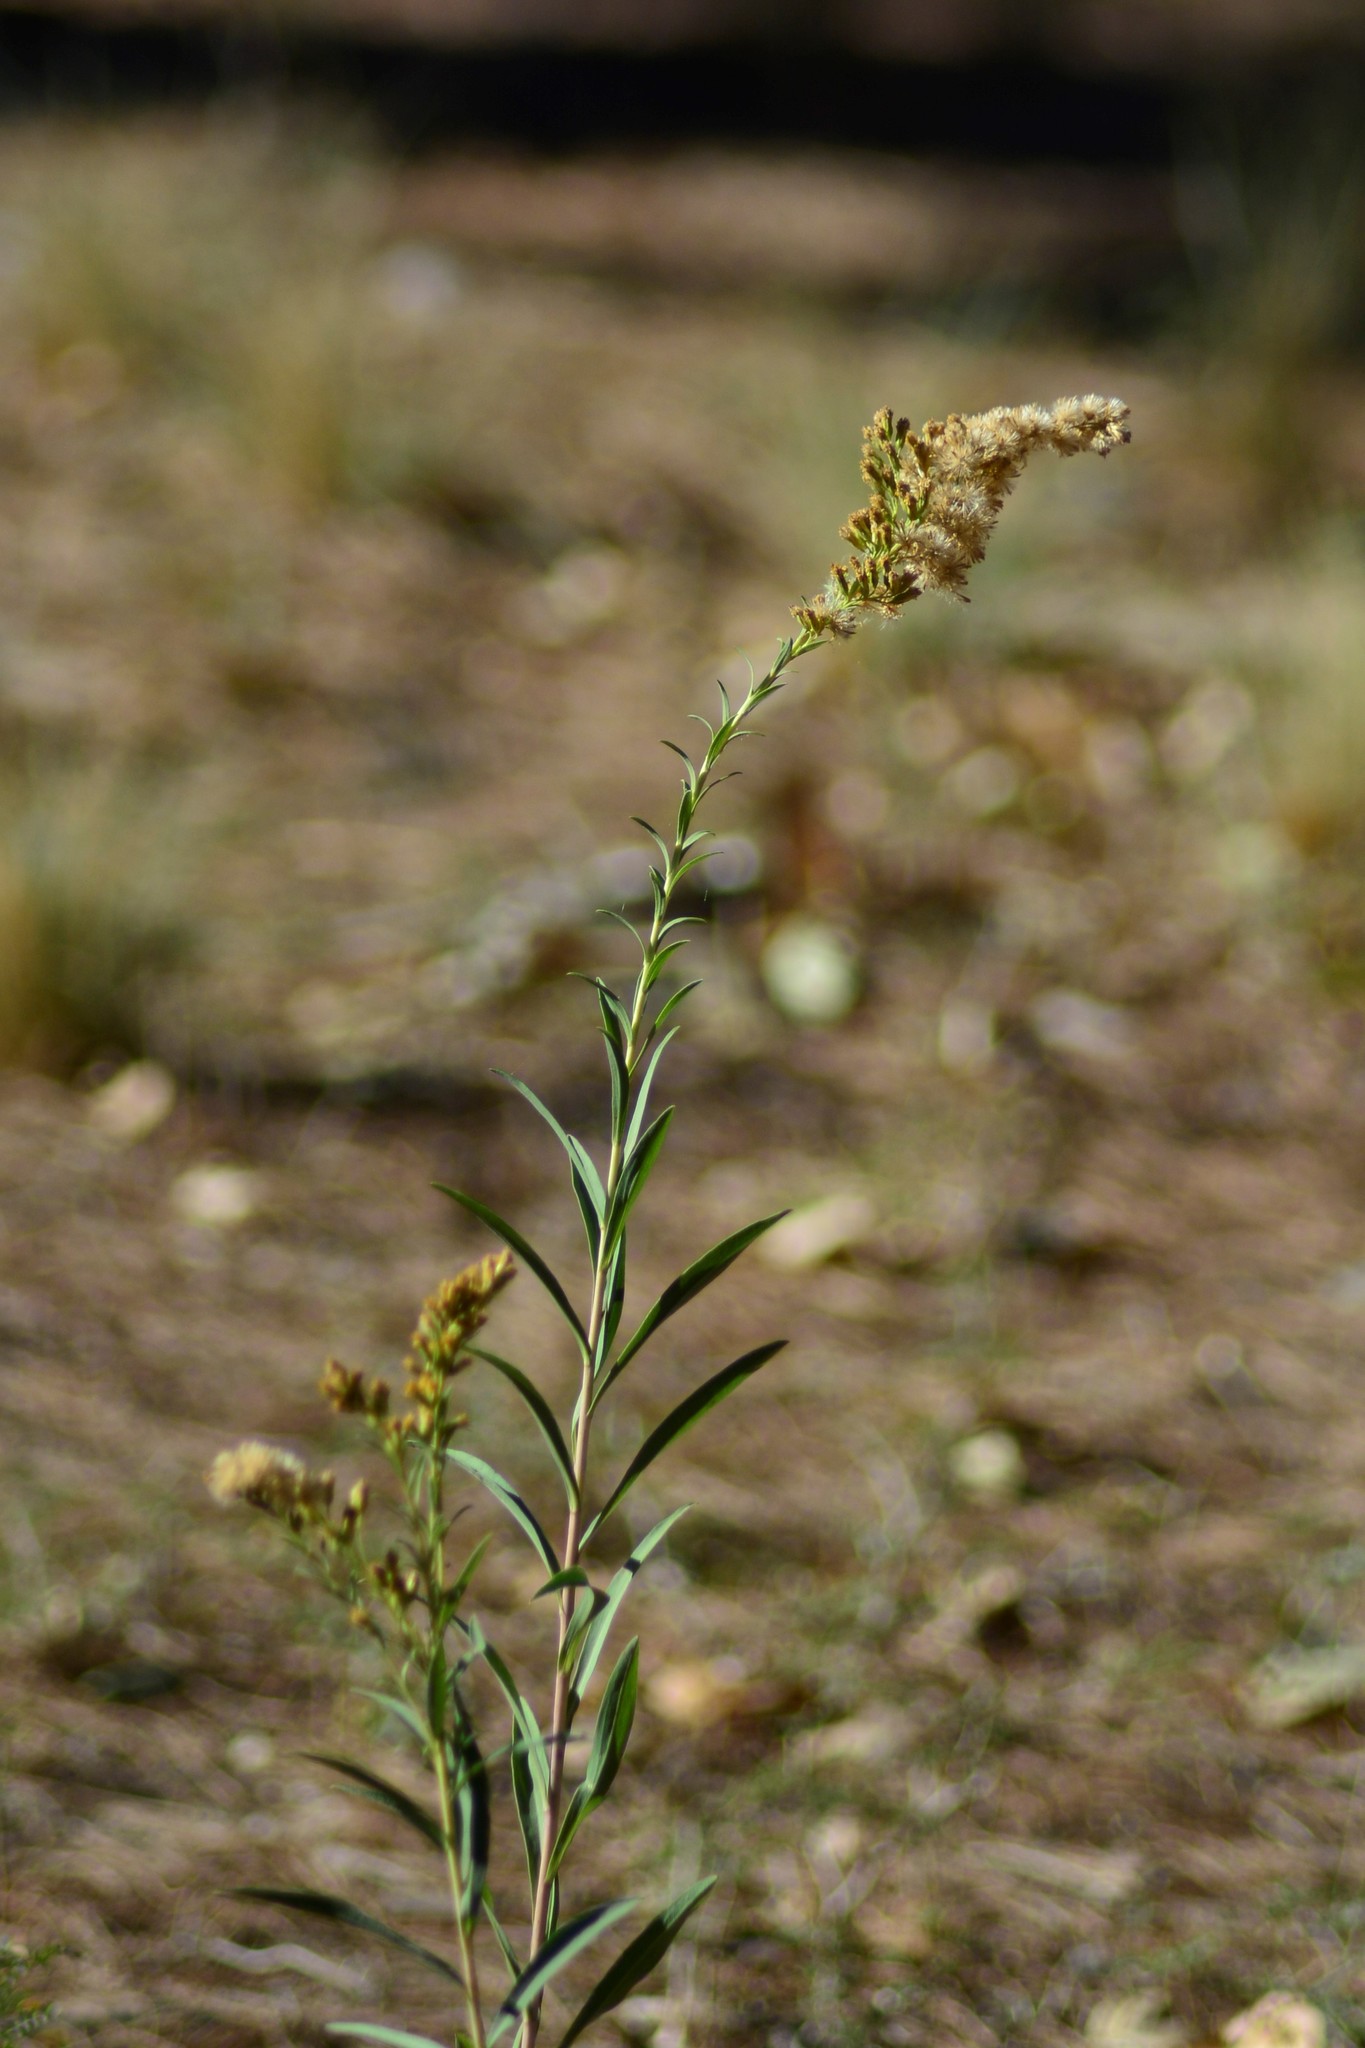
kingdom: Plantae
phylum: Tracheophyta
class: Magnoliopsida
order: Asterales
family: Asteraceae
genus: Solidago
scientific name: Solidago chilensis
